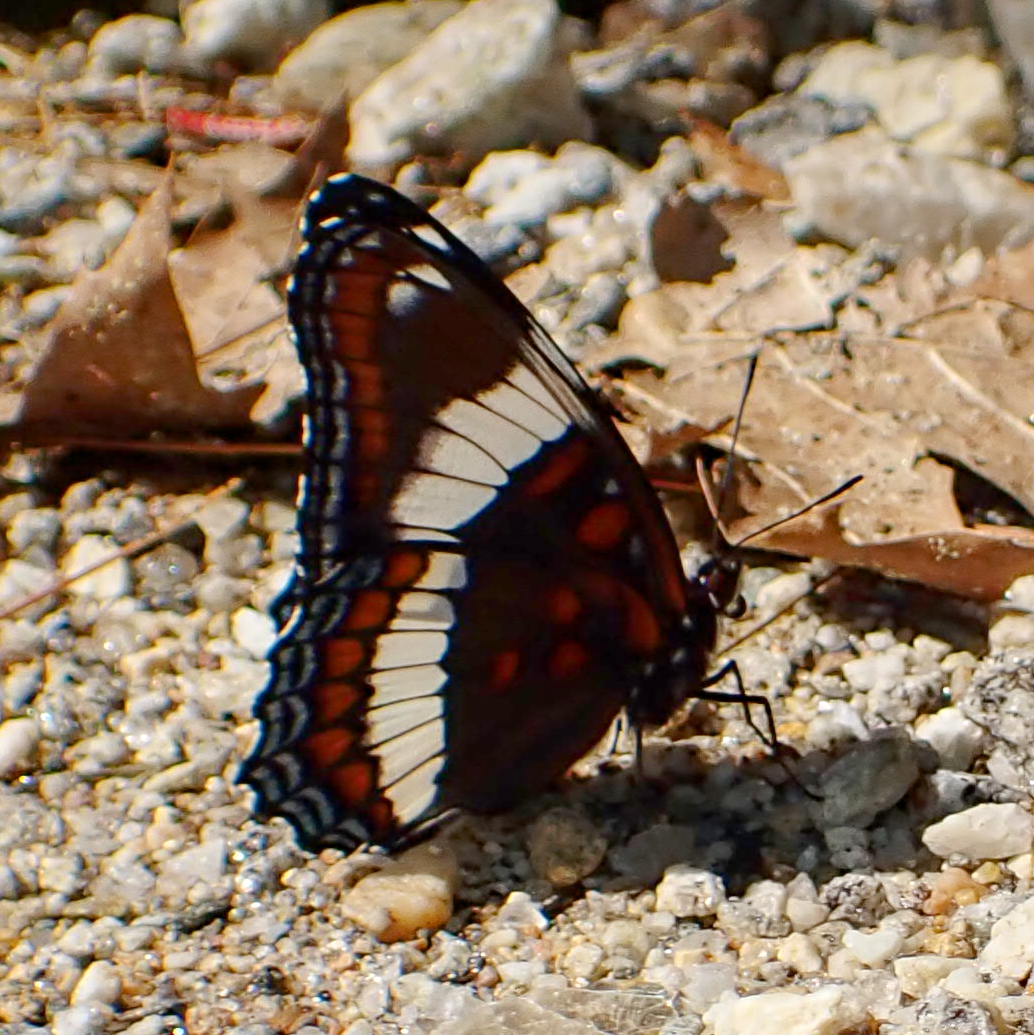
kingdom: Animalia
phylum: Arthropoda
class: Insecta
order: Lepidoptera
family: Nymphalidae
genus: Limenitis
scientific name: Limenitis arthemis
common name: Red-spotted admiral
